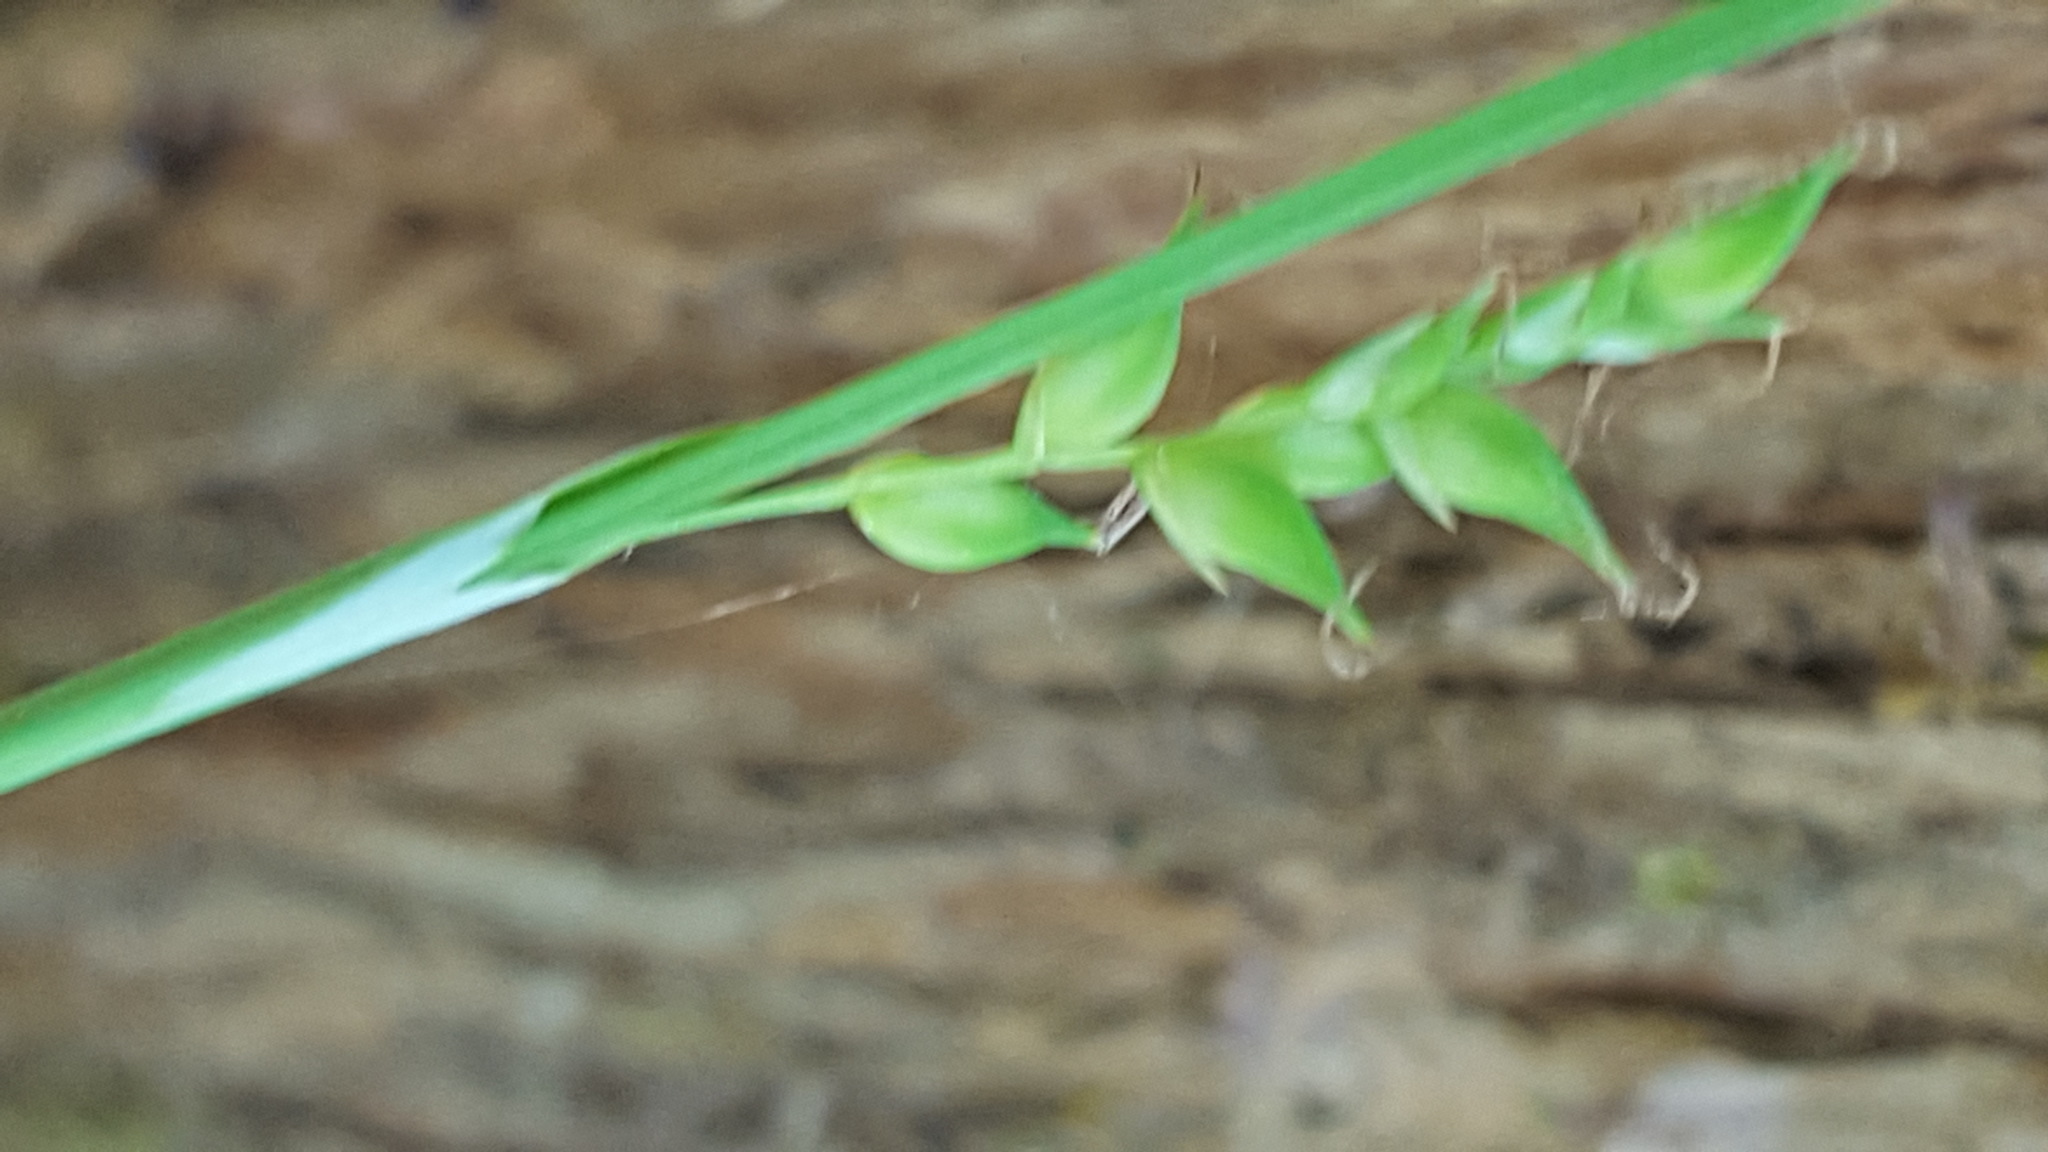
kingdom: Plantae
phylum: Tracheophyta
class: Liliopsida
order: Poales
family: Cyperaceae
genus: Carex
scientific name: Carex vaginata
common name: Sheathed sedge
